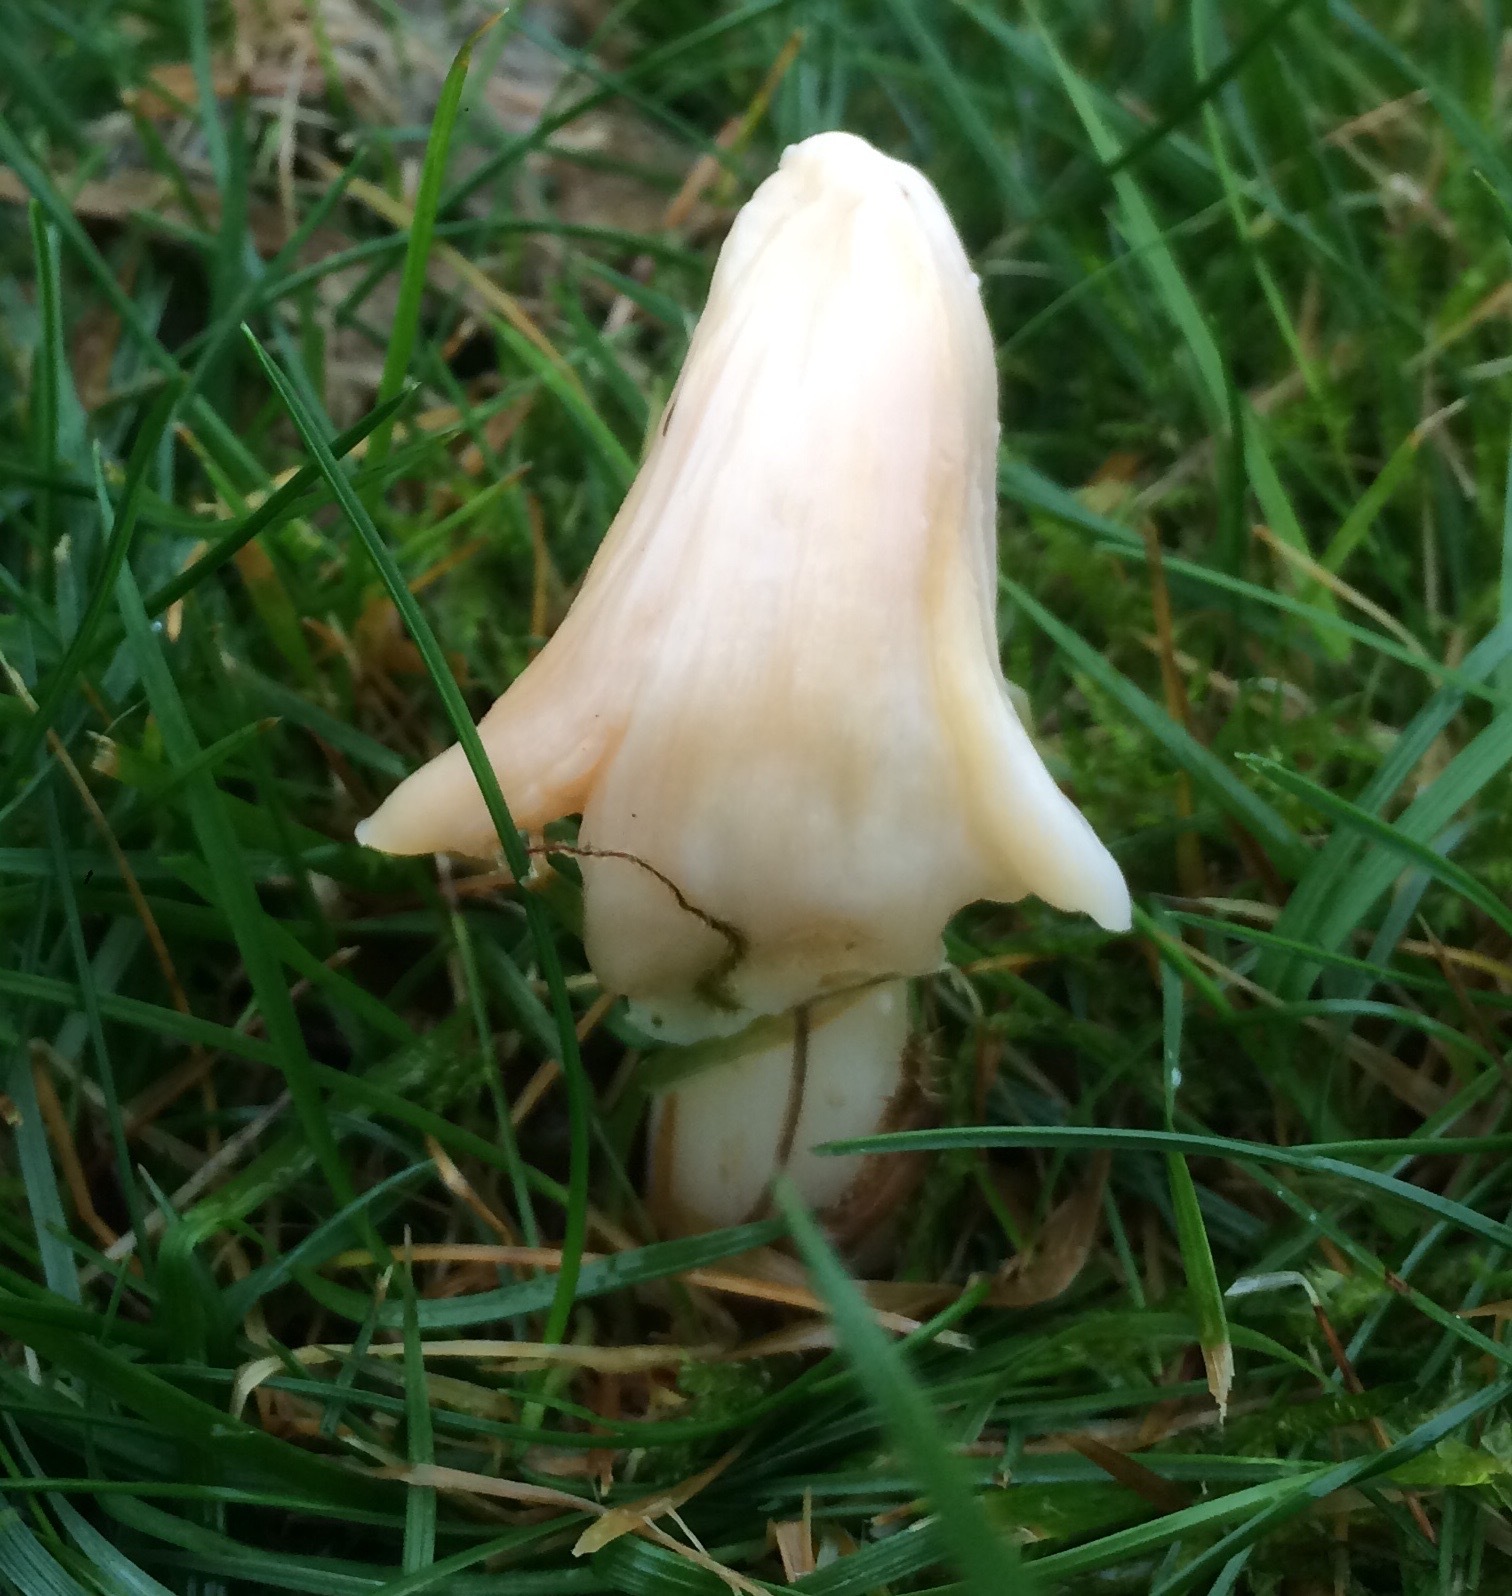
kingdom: Fungi
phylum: Basidiomycota
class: Agaricomycetes
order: Agaricales
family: Hygrophoraceae
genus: Porpolomopsis
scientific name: Porpolomopsis calyptriformis
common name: Pink waxcap
